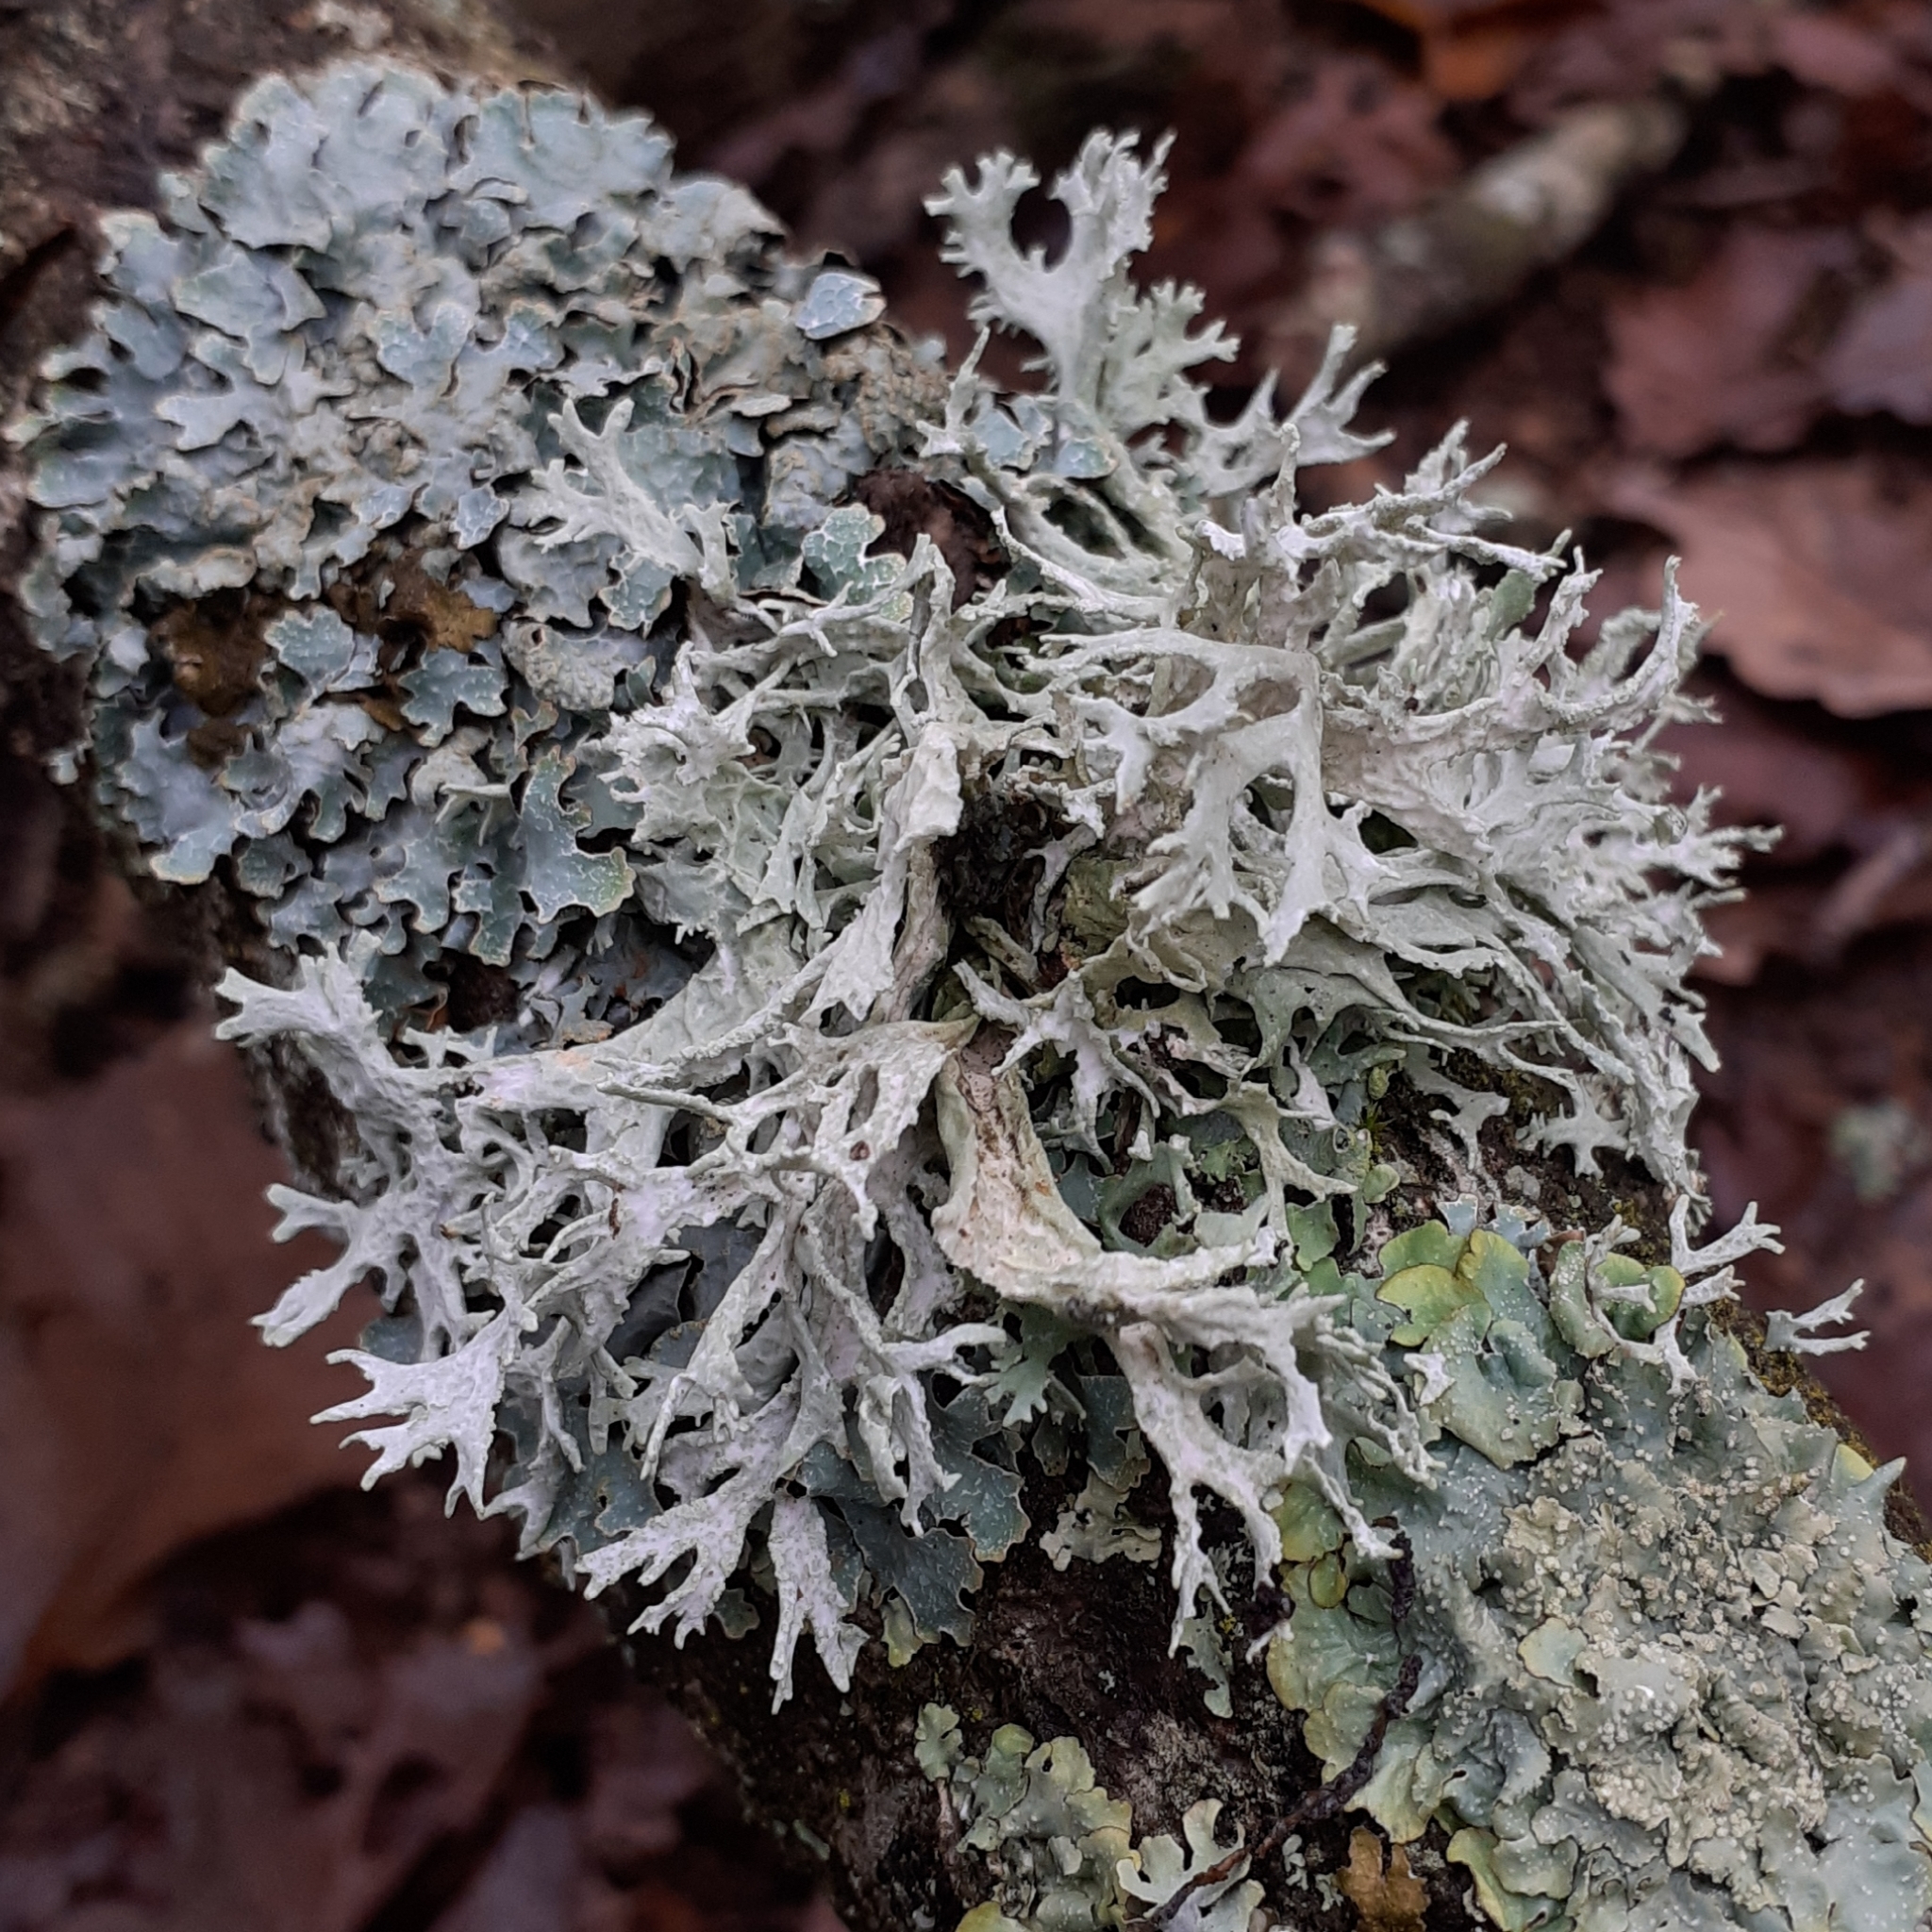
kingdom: Fungi
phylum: Ascomycota
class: Lecanoromycetes
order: Lecanorales
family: Parmeliaceae
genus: Evernia
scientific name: Evernia prunastri
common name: Oak moss
